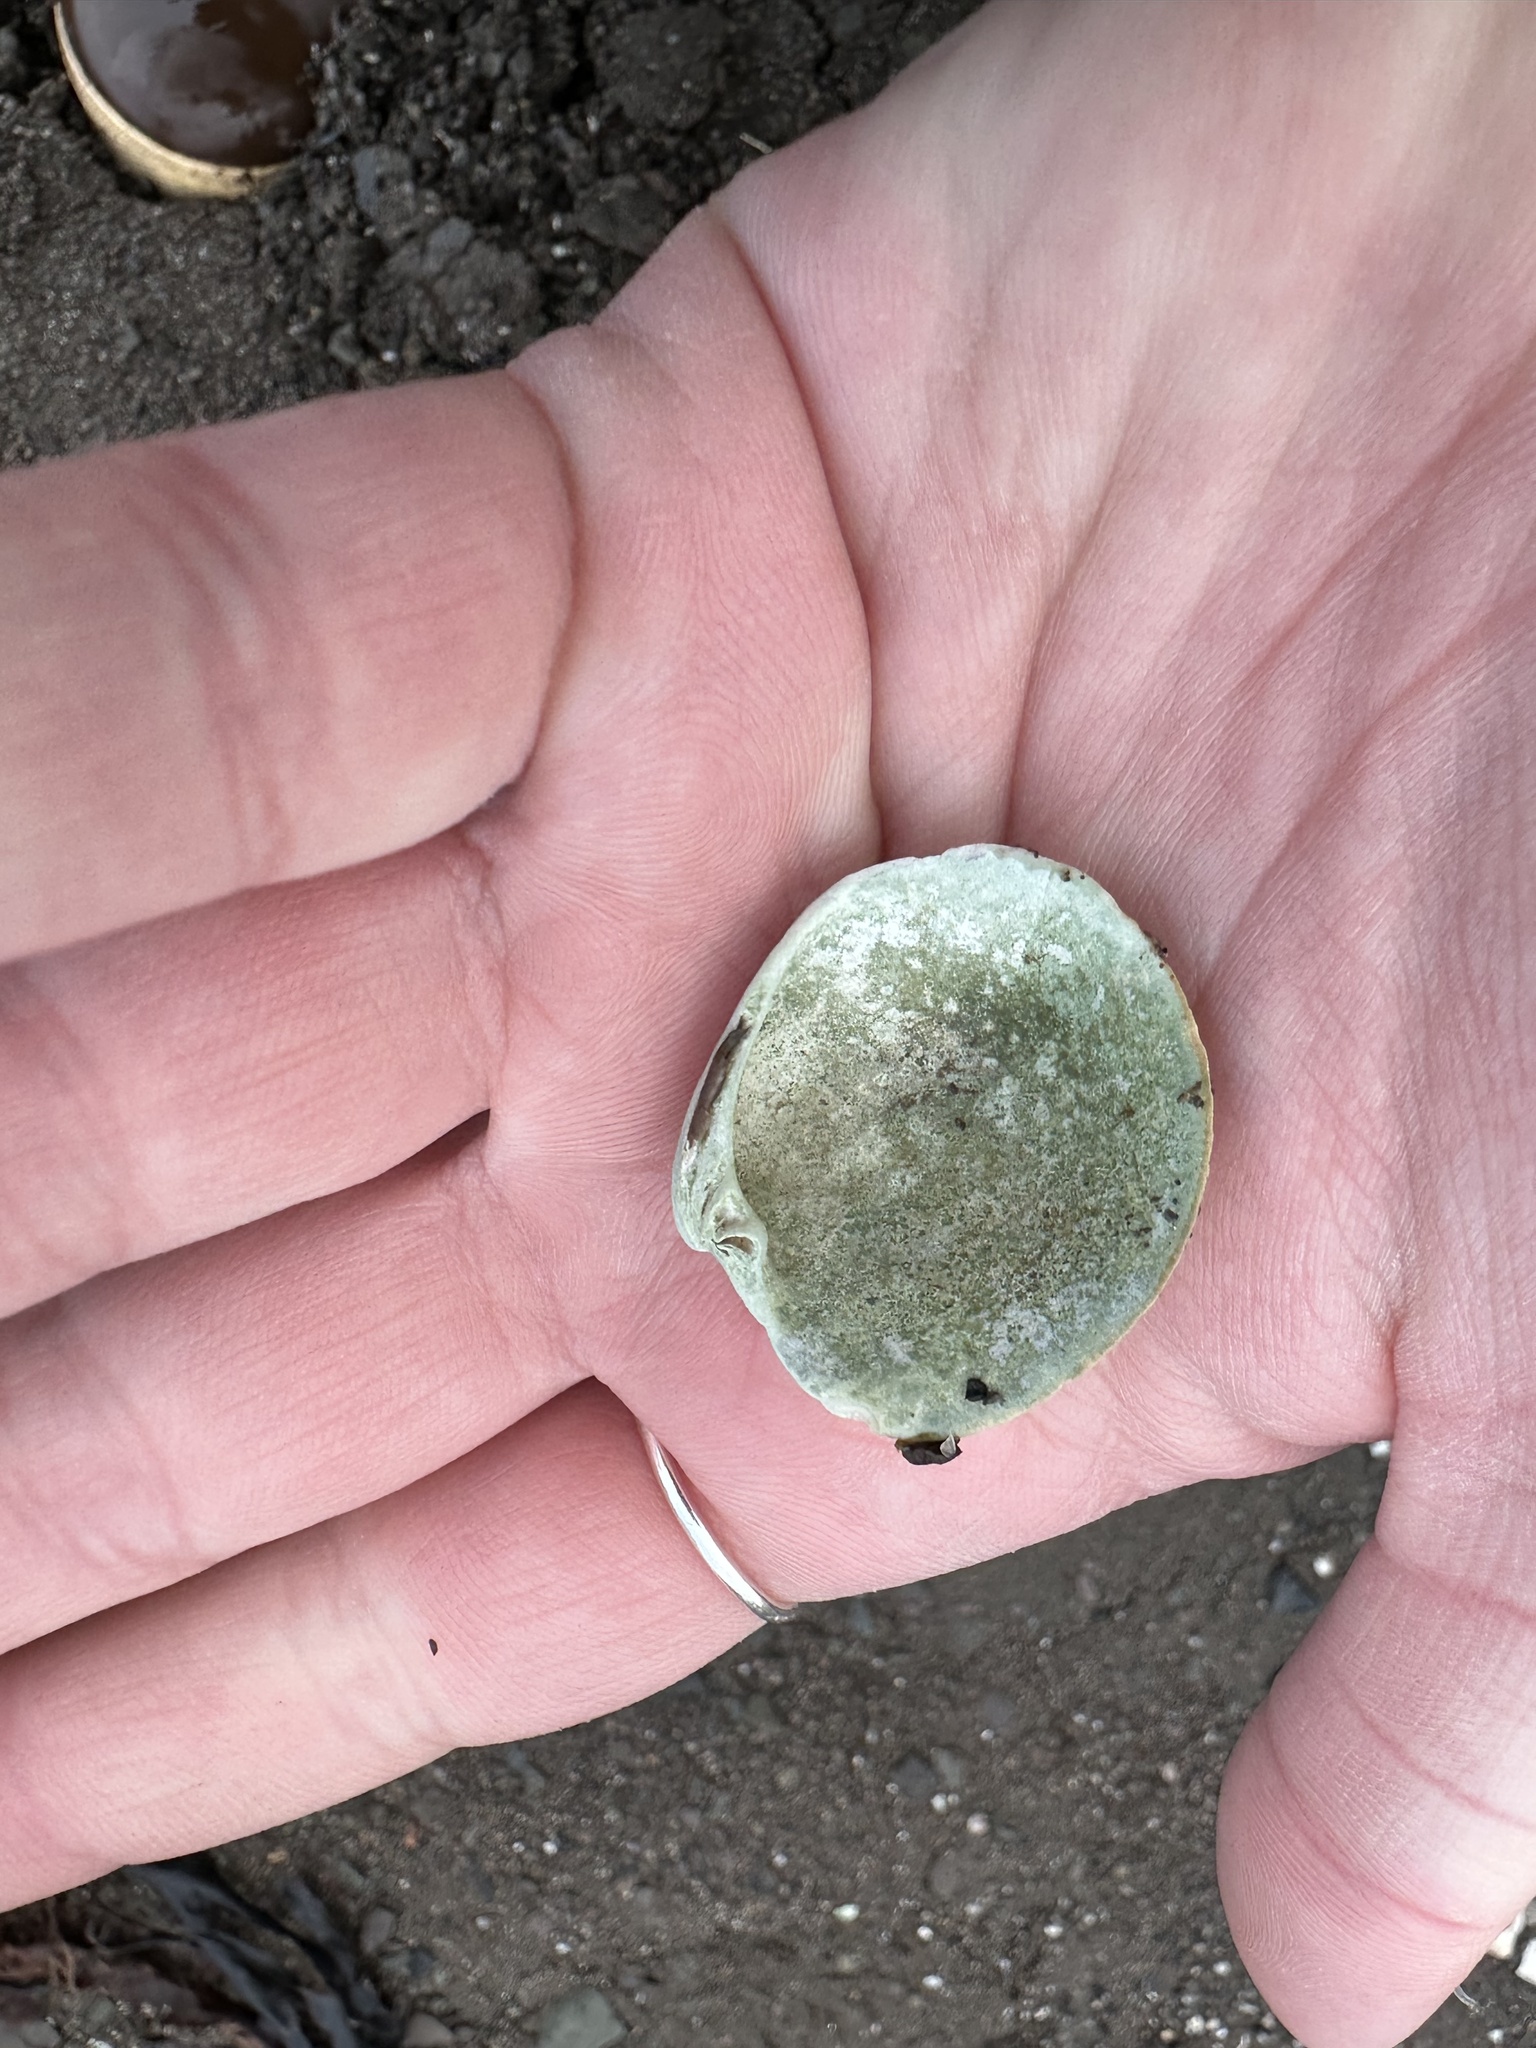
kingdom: Animalia
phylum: Mollusca
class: Bivalvia
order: Venerida
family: Veneridae
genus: Mercenaria
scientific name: Mercenaria mercenaria
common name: American hard-shelled clam
